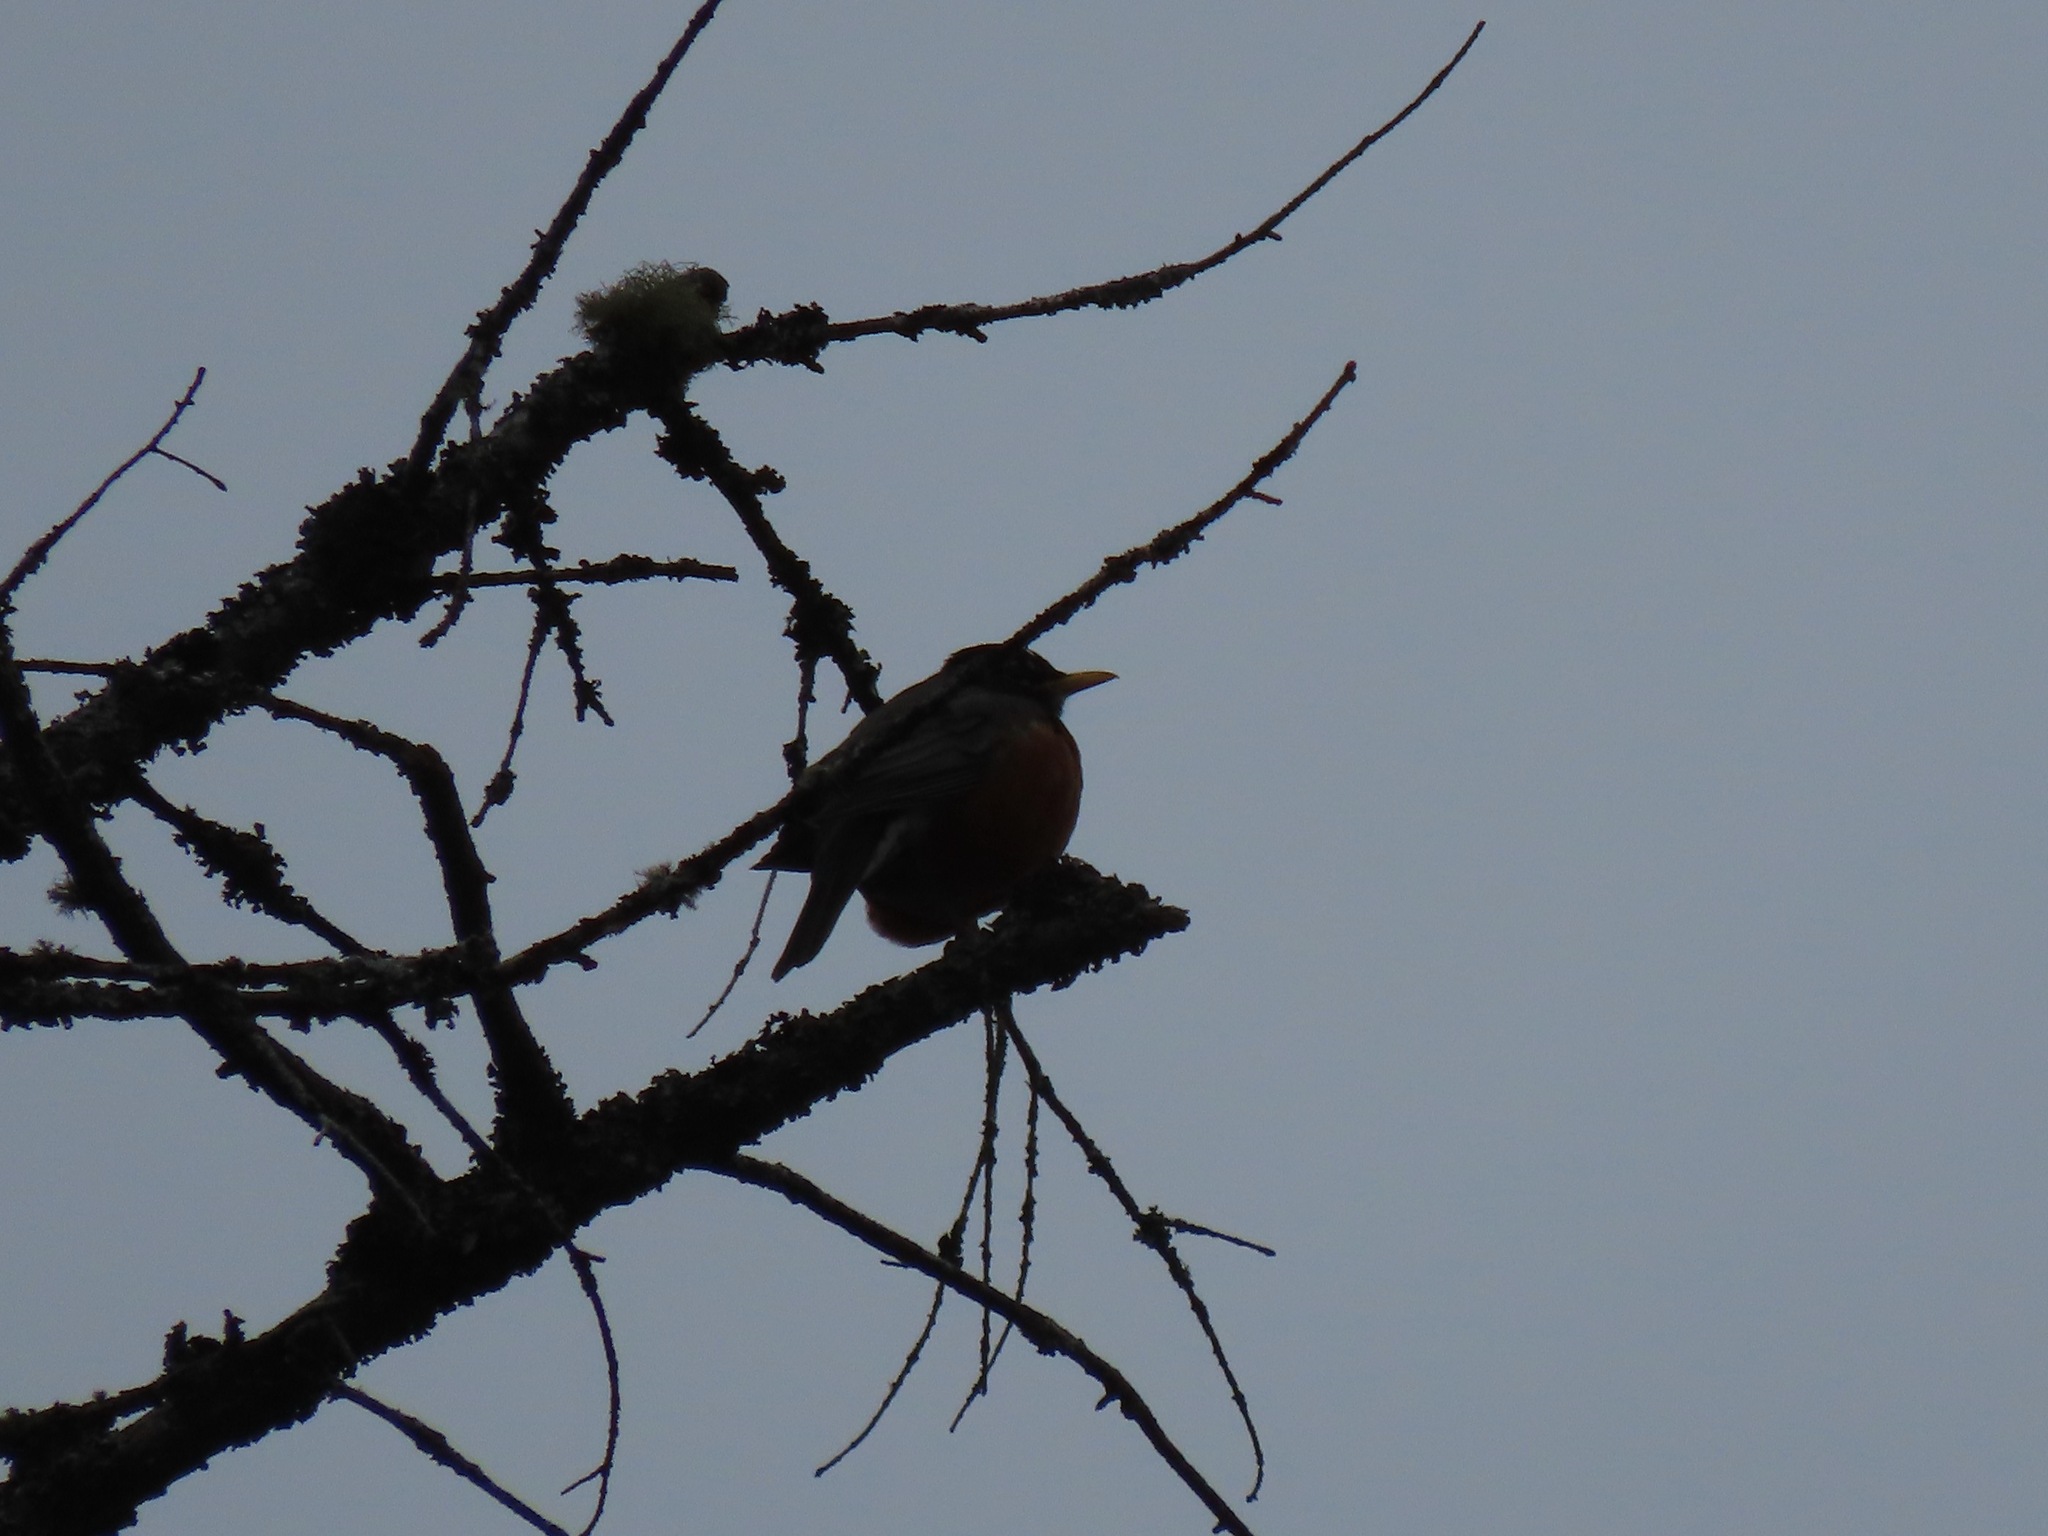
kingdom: Animalia
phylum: Chordata
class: Aves
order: Passeriformes
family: Turdidae
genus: Turdus
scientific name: Turdus migratorius
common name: American robin
